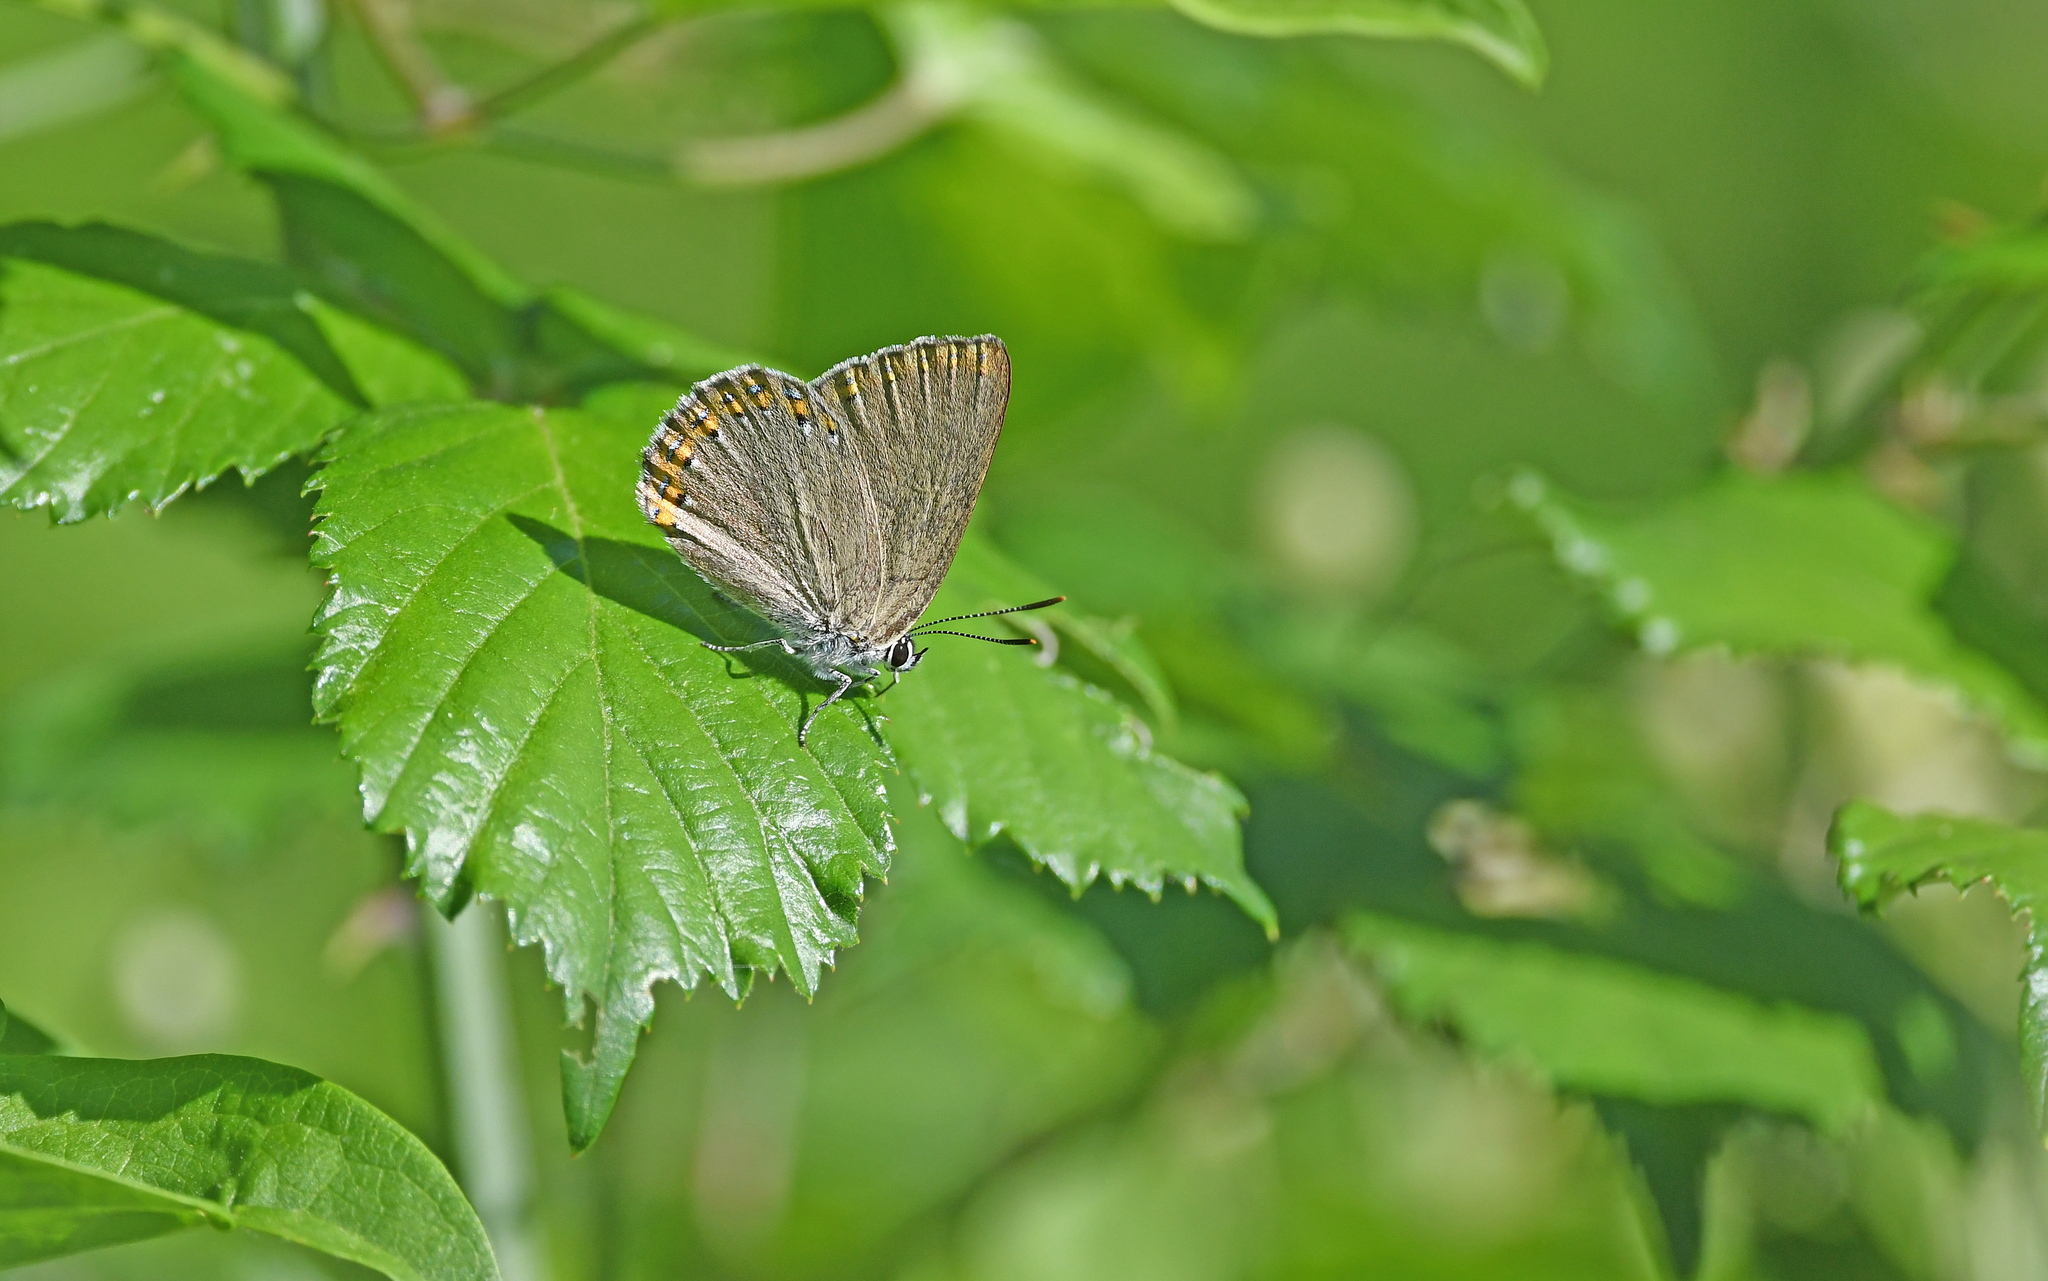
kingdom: Animalia
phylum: Arthropoda
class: Insecta
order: Lepidoptera
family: Lycaenidae
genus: Laeosopis
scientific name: Laeosopis roboris
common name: Spanish purple hairstreak
